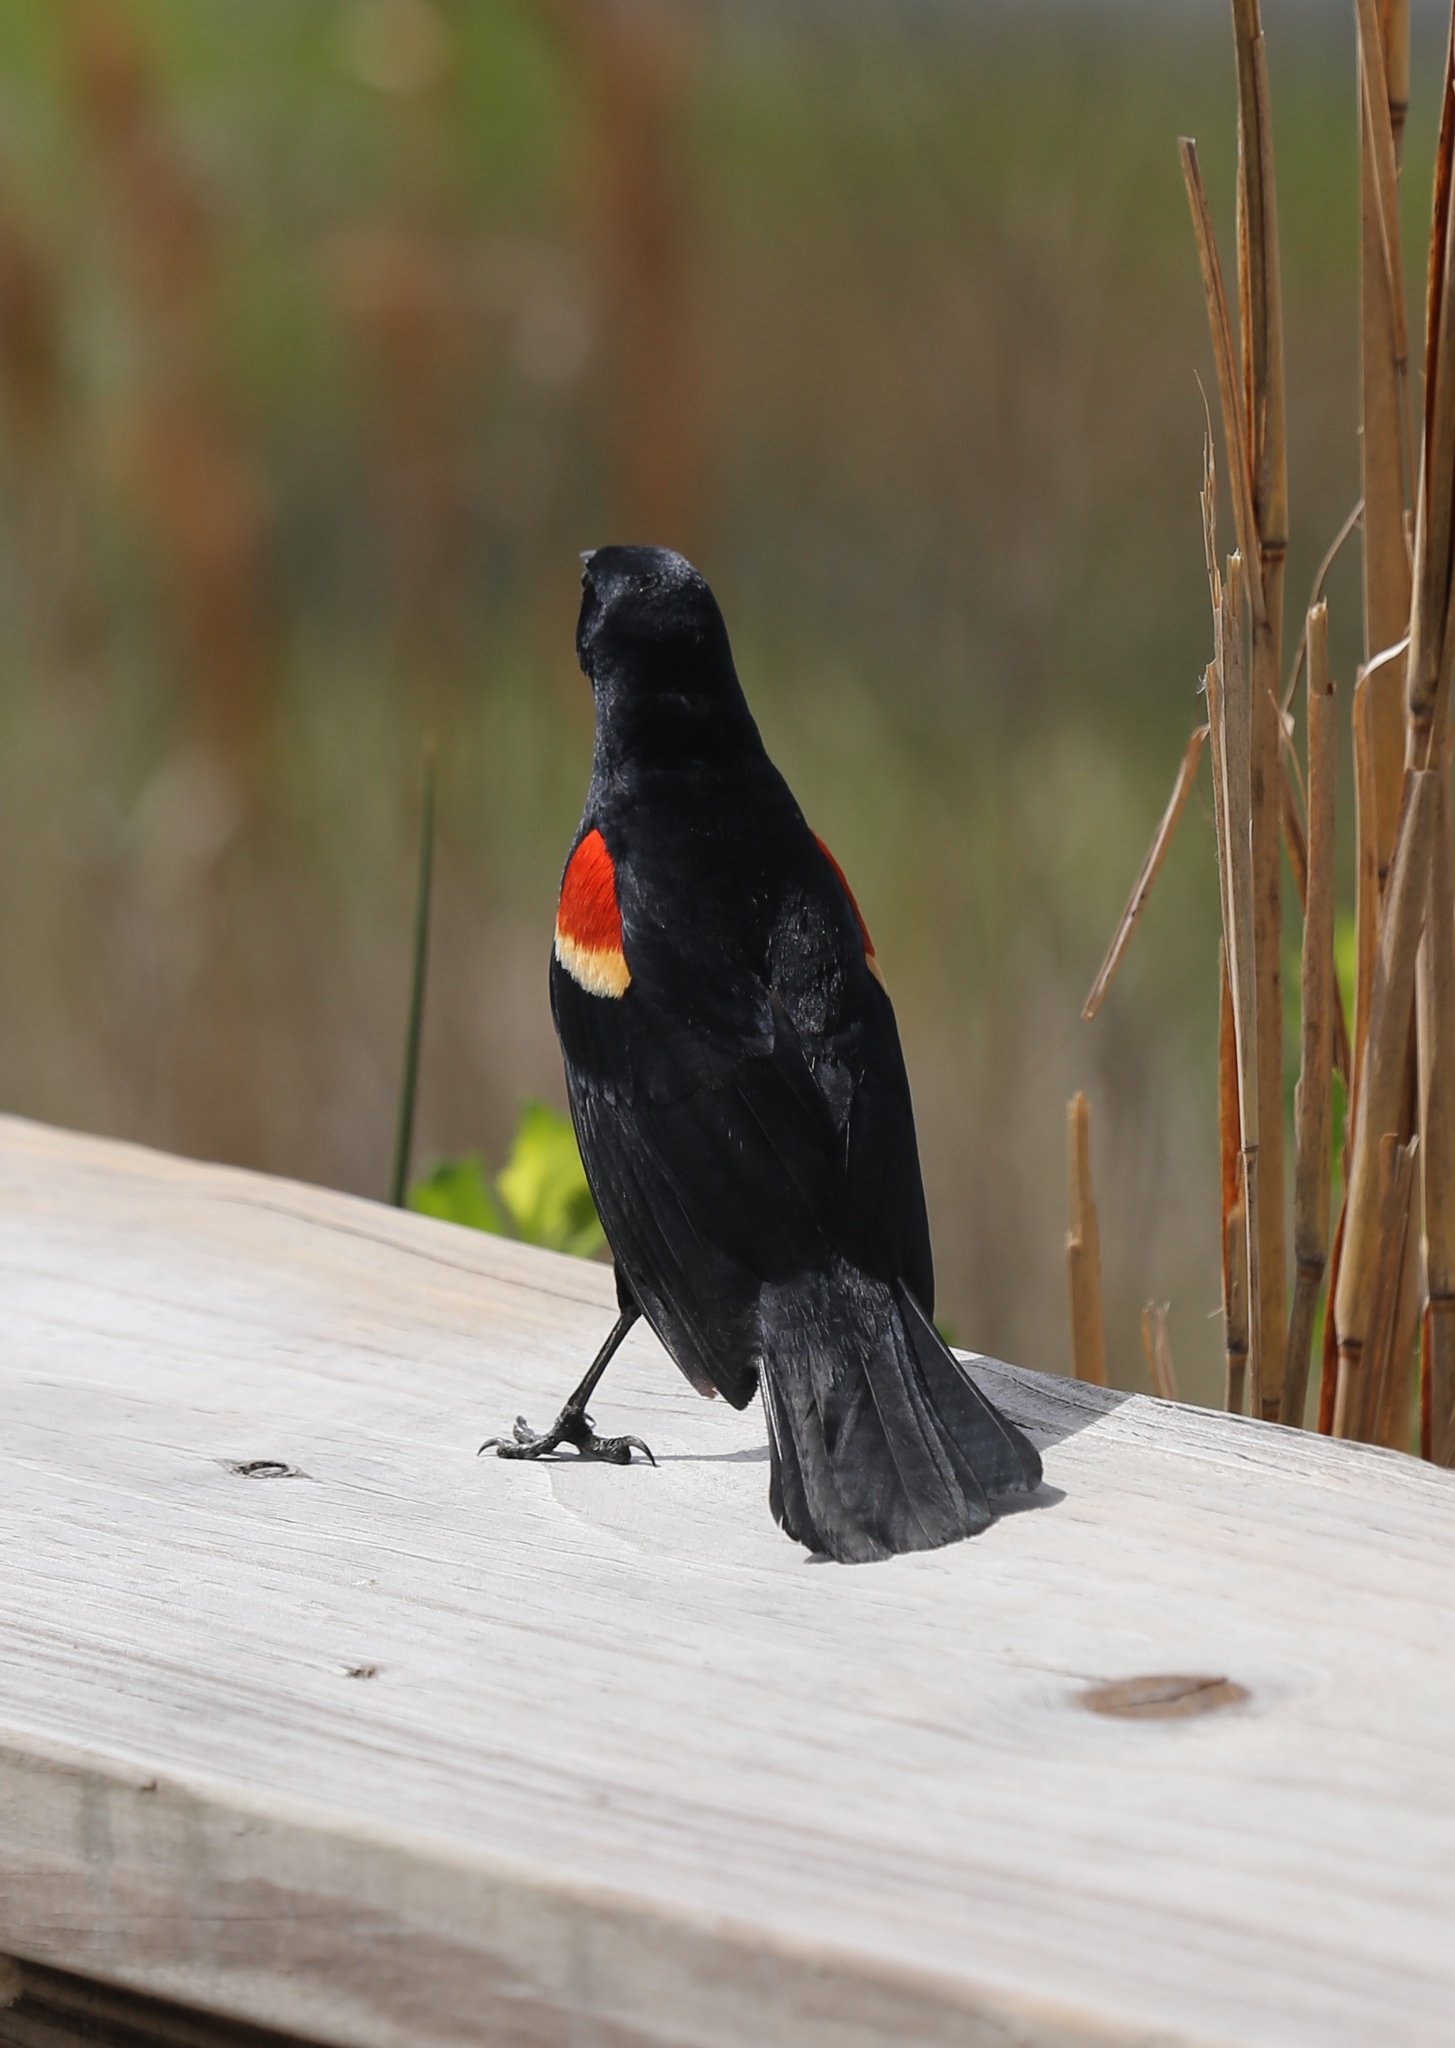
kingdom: Animalia
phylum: Chordata
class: Aves
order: Passeriformes
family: Icteridae
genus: Agelaius
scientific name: Agelaius phoeniceus
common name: Red-winged blackbird
